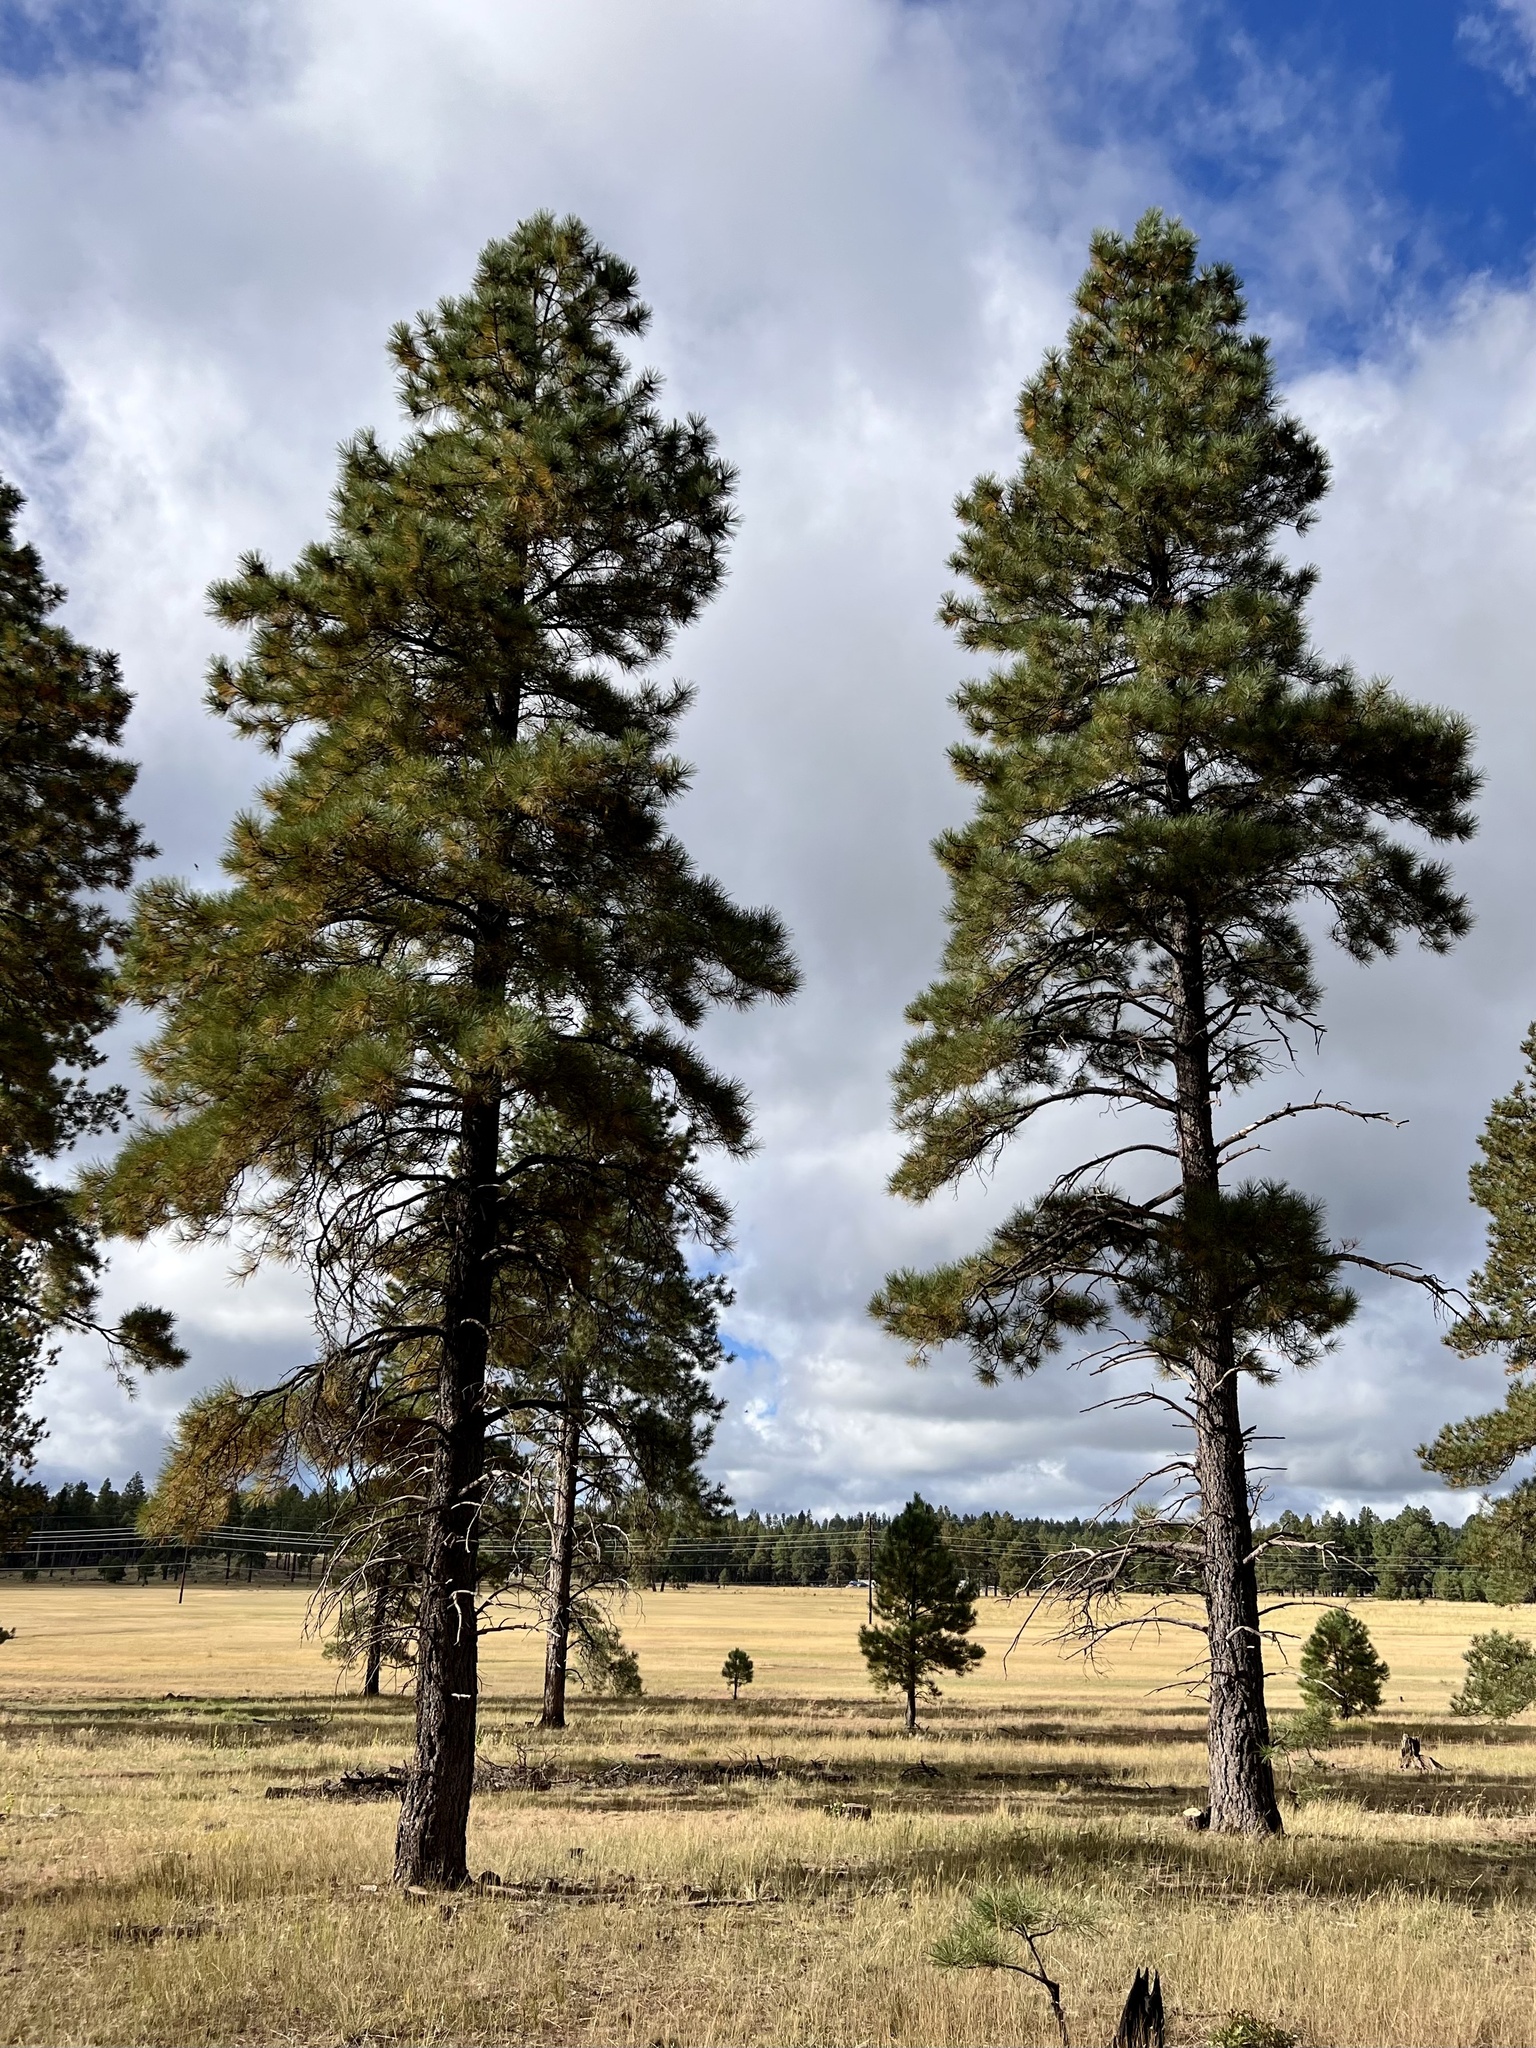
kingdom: Plantae
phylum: Tracheophyta
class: Pinopsida
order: Pinales
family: Pinaceae
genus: Pinus
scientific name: Pinus ponderosa
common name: Western yellow-pine
